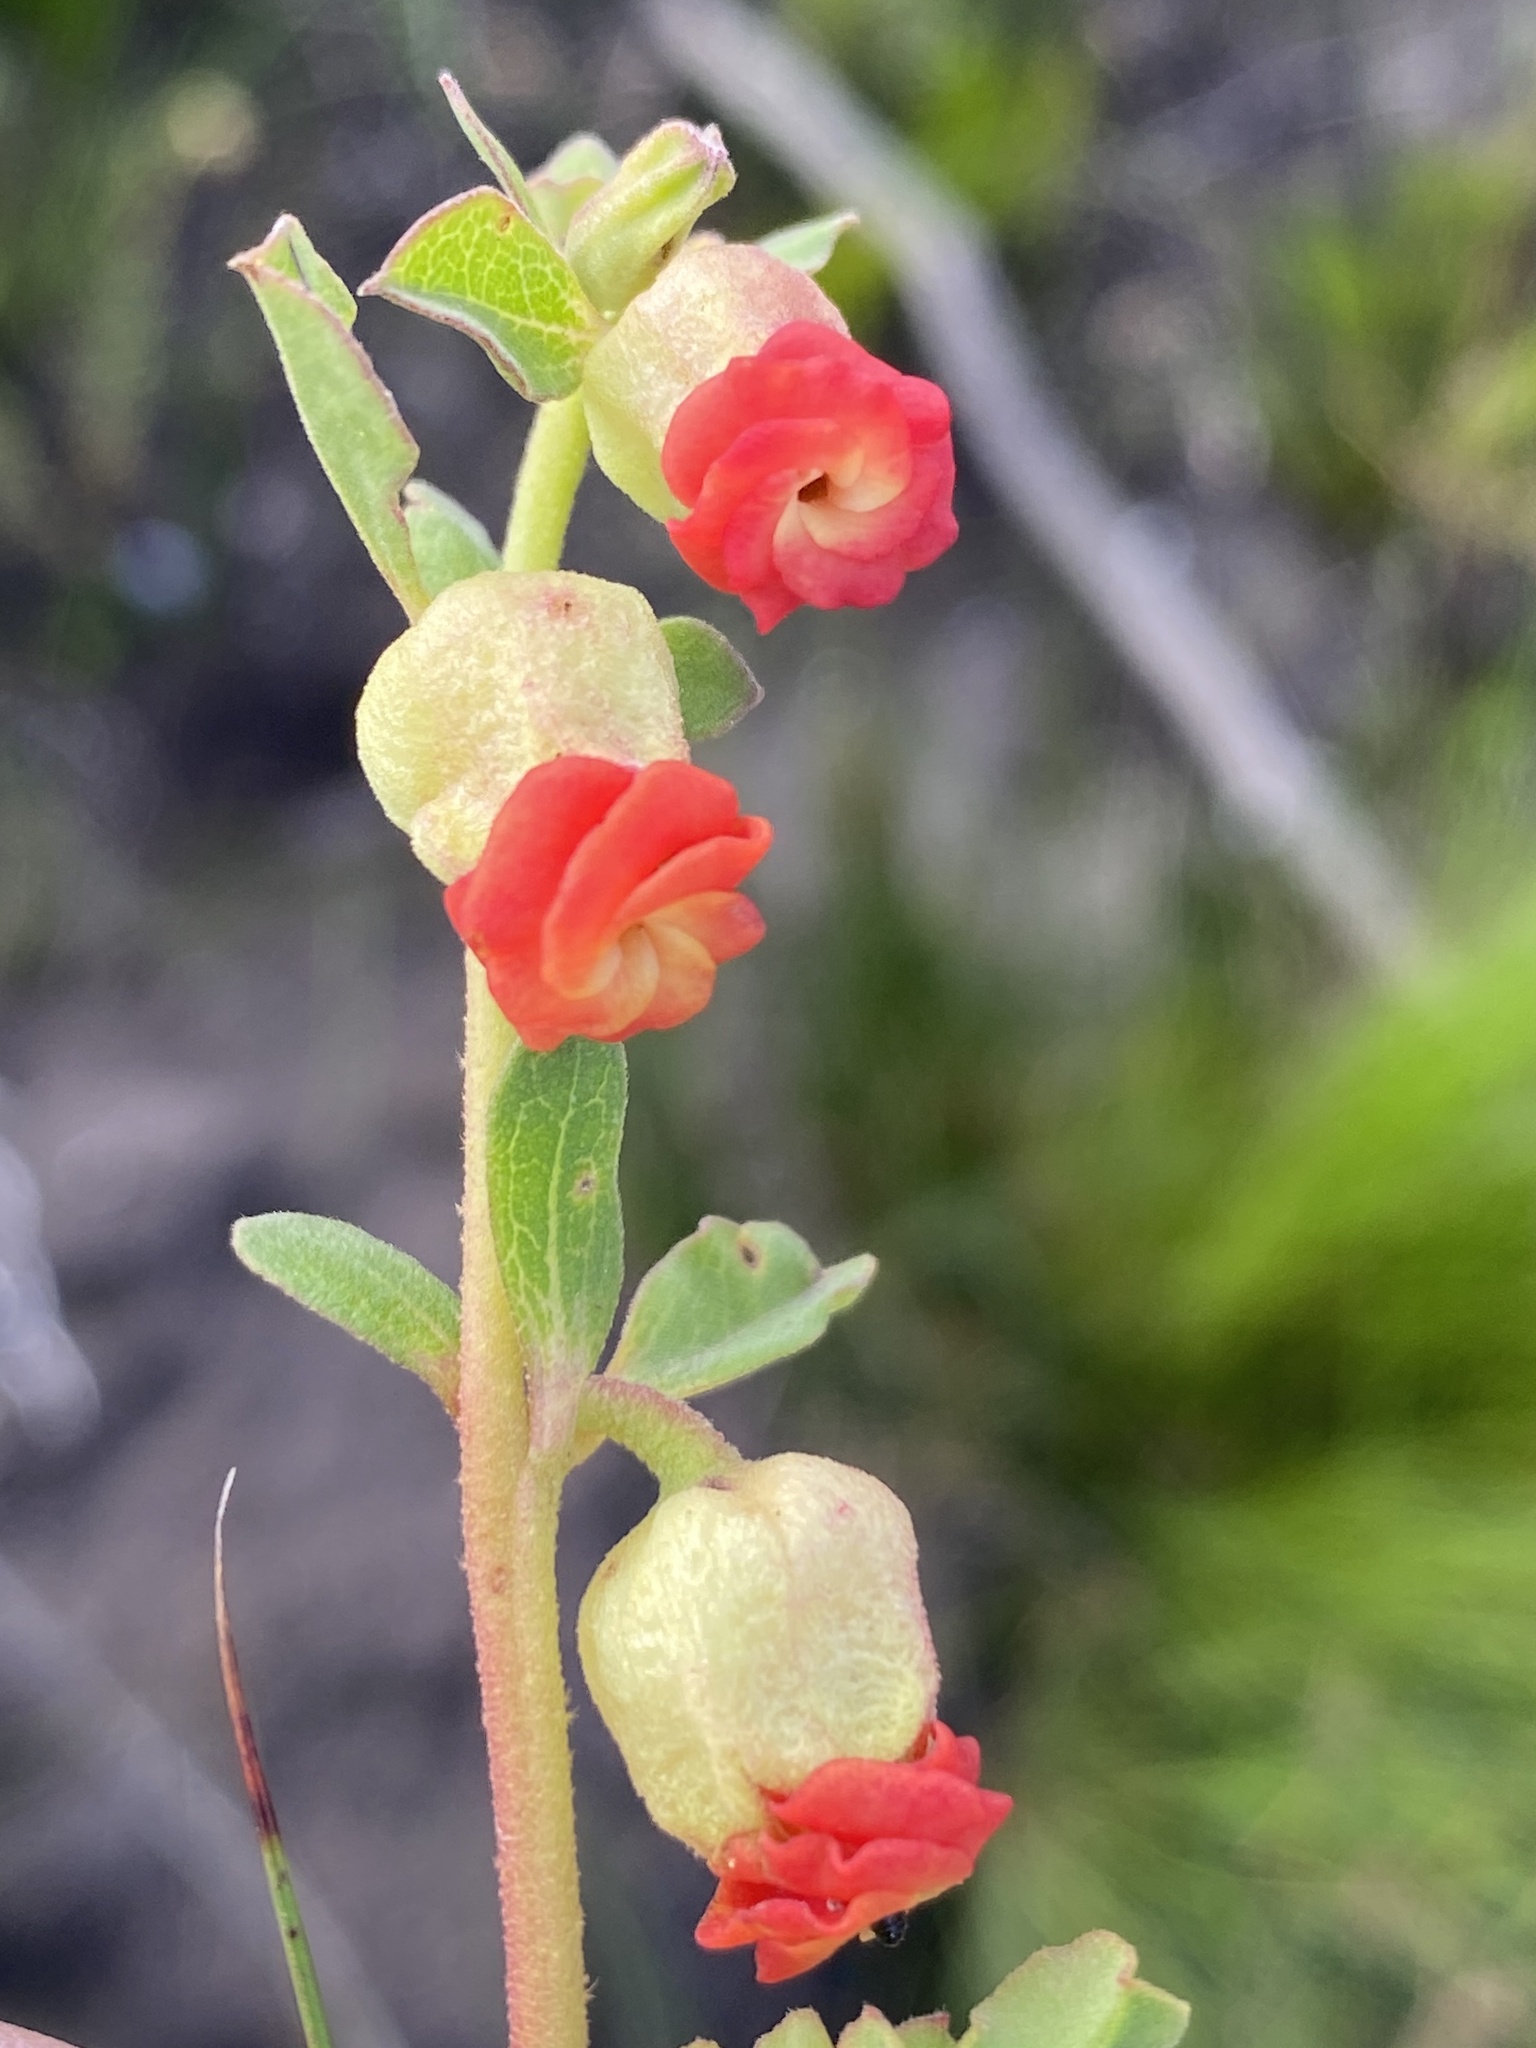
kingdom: Plantae
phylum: Tracheophyta
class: Magnoliopsida
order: Malvales
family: Malvaceae
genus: Hermannia
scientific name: Hermannia ternifolia
